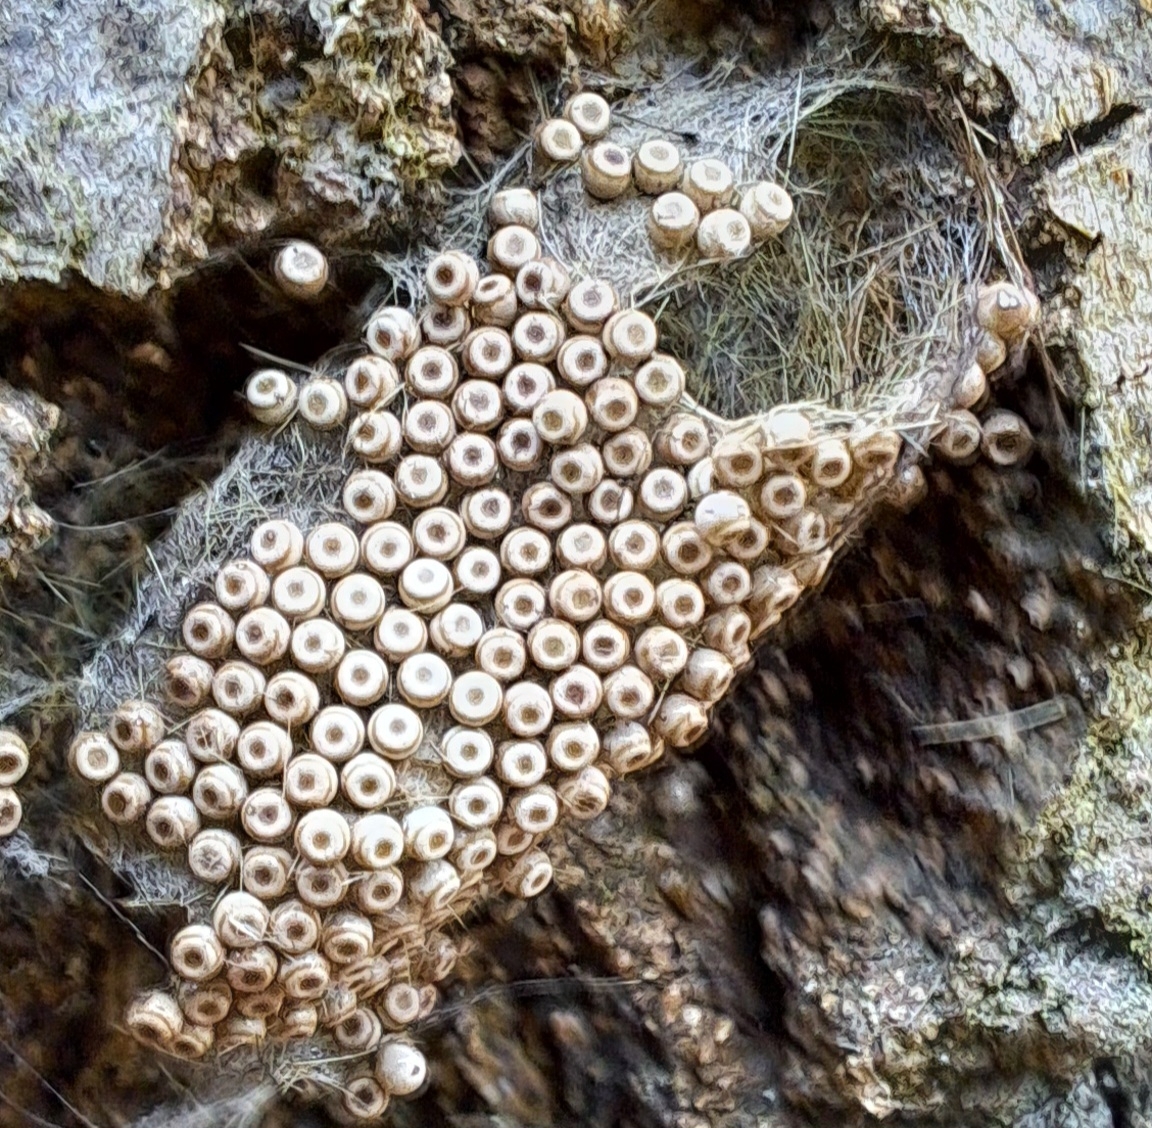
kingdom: Animalia
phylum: Arthropoda
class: Insecta
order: Lepidoptera
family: Erebidae
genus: Orgyia
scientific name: Orgyia antiqua
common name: Vapourer
